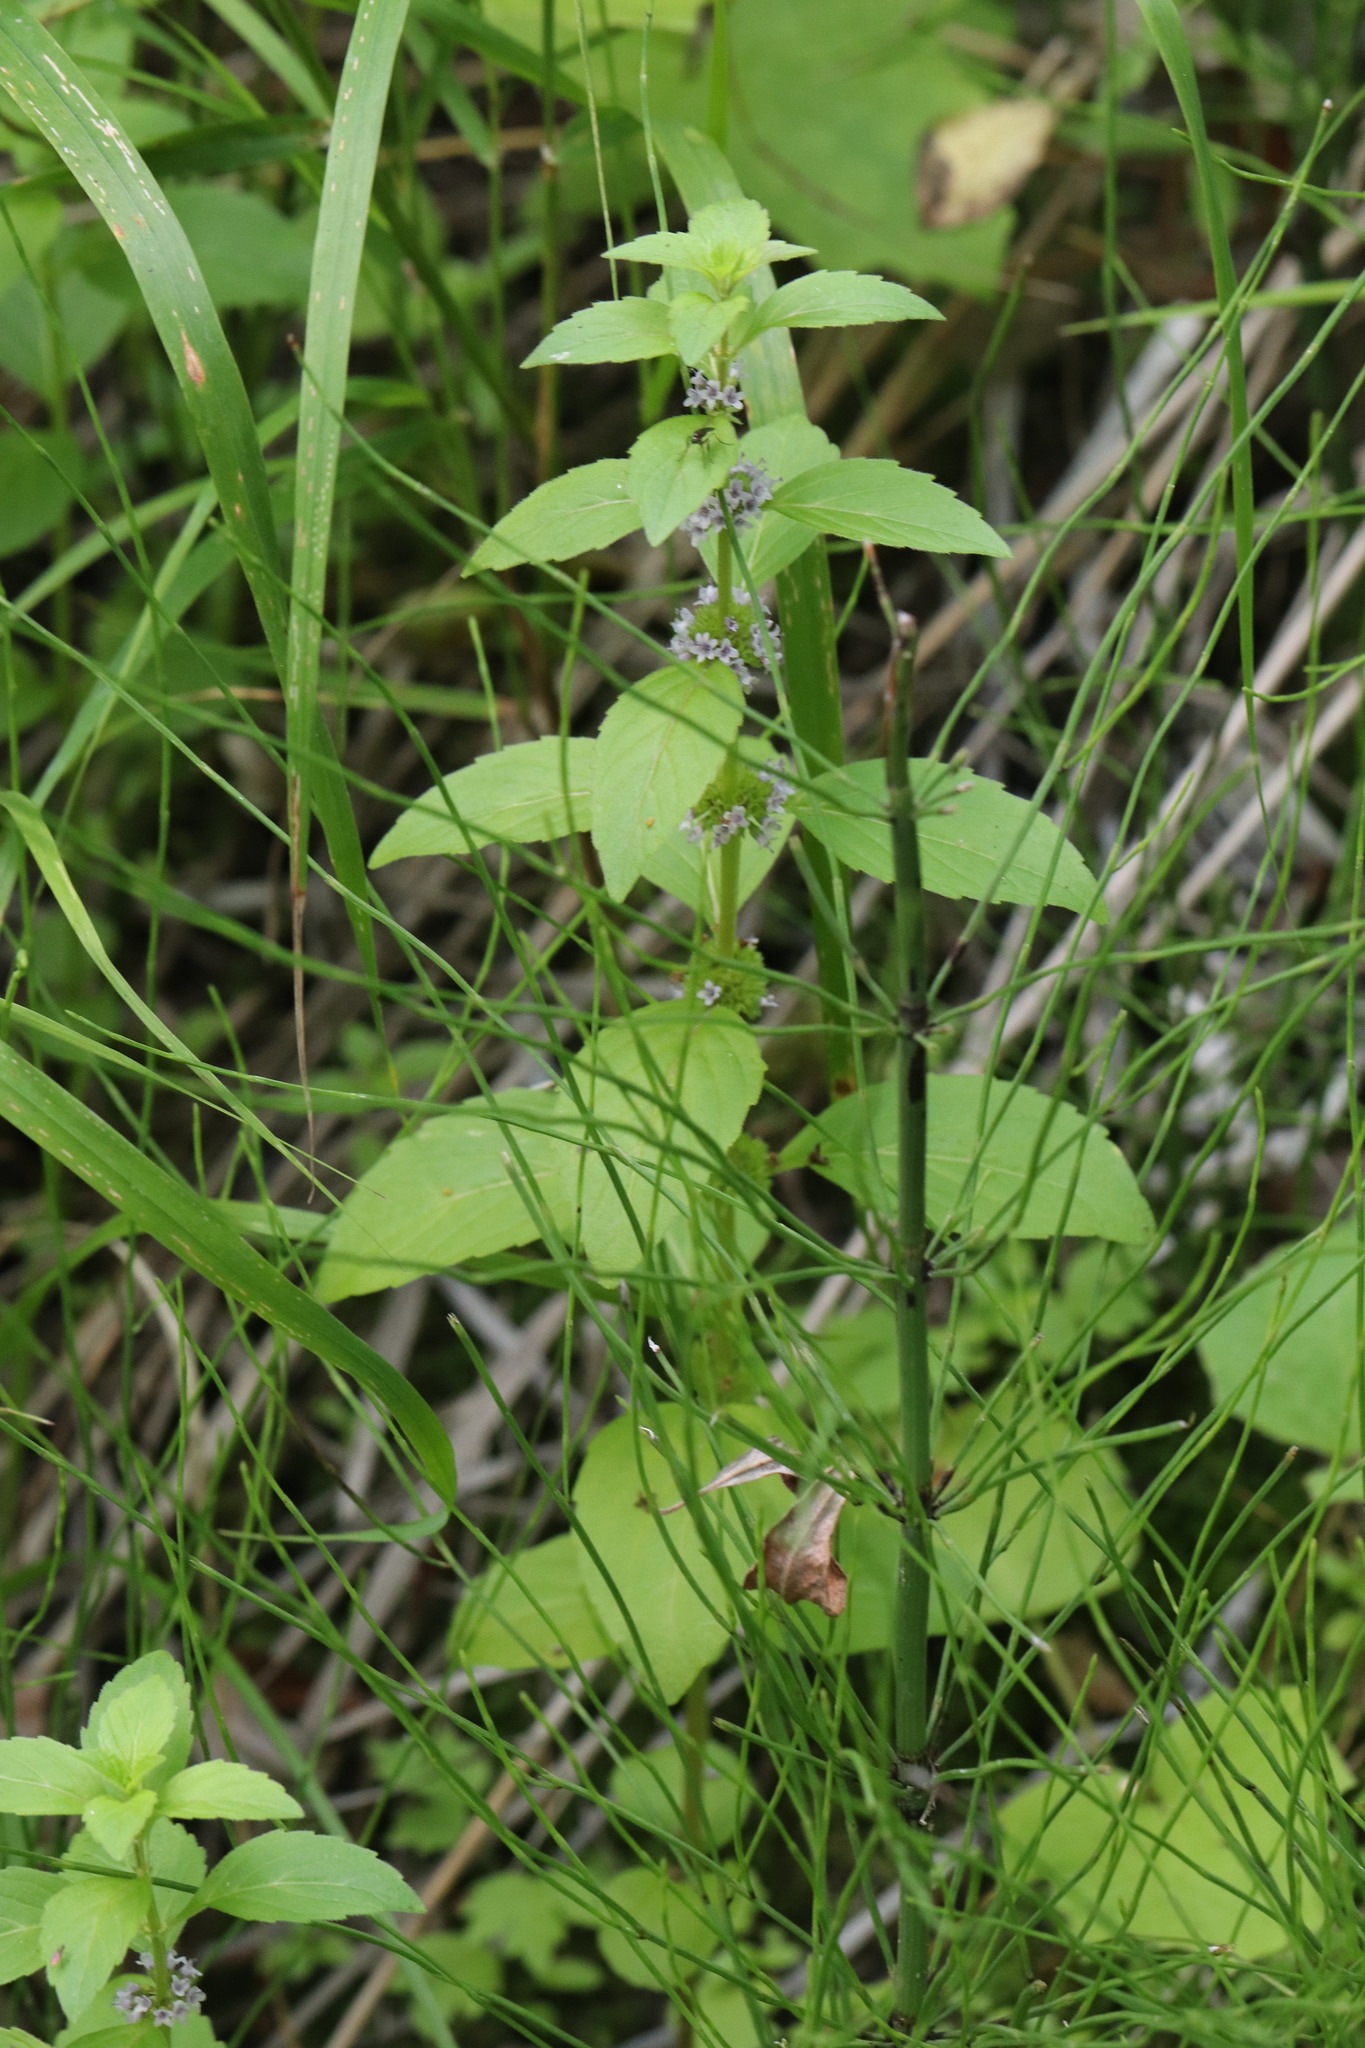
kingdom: Plantae
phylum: Tracheophyta
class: Magnoliopsida
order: Lamiales
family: Lamiaceae
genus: Mentha
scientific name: Mentha arvensis
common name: Corn mint
